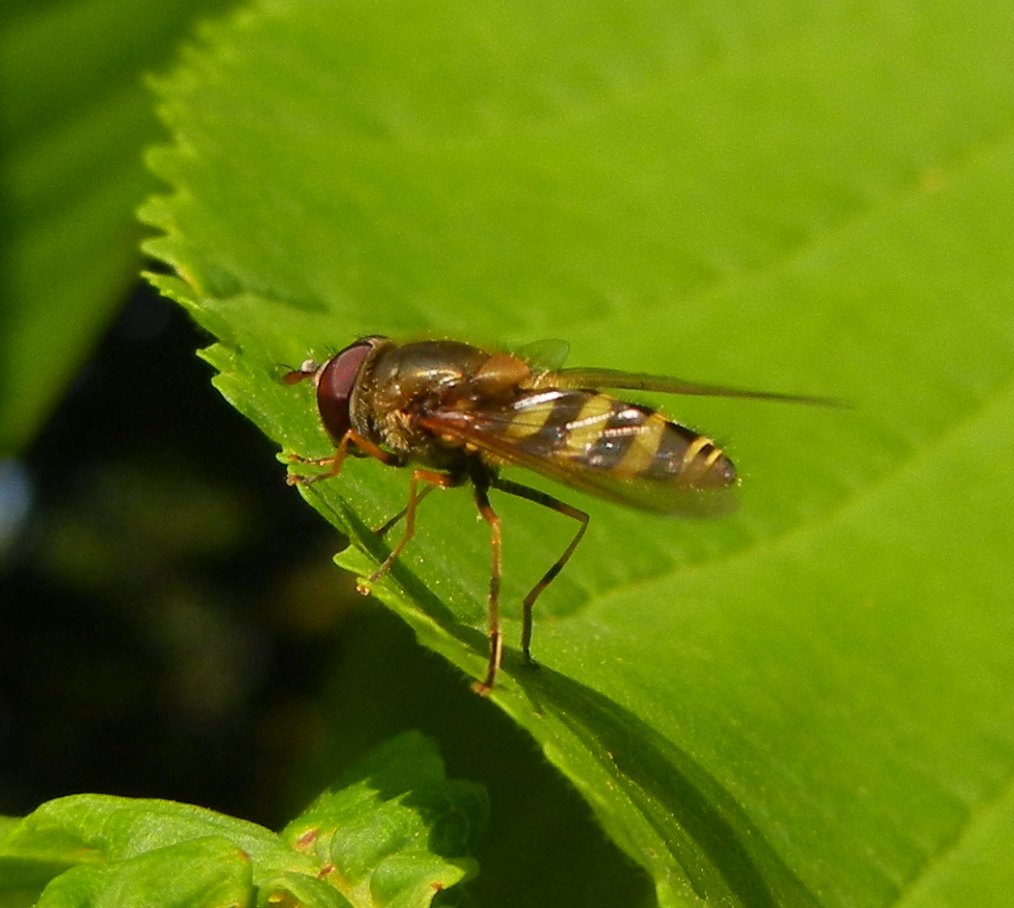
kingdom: Animalia
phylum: Arthropoda
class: Insecta
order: Diptera
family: Syrphidae
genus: Syrphus
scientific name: Syrphus
